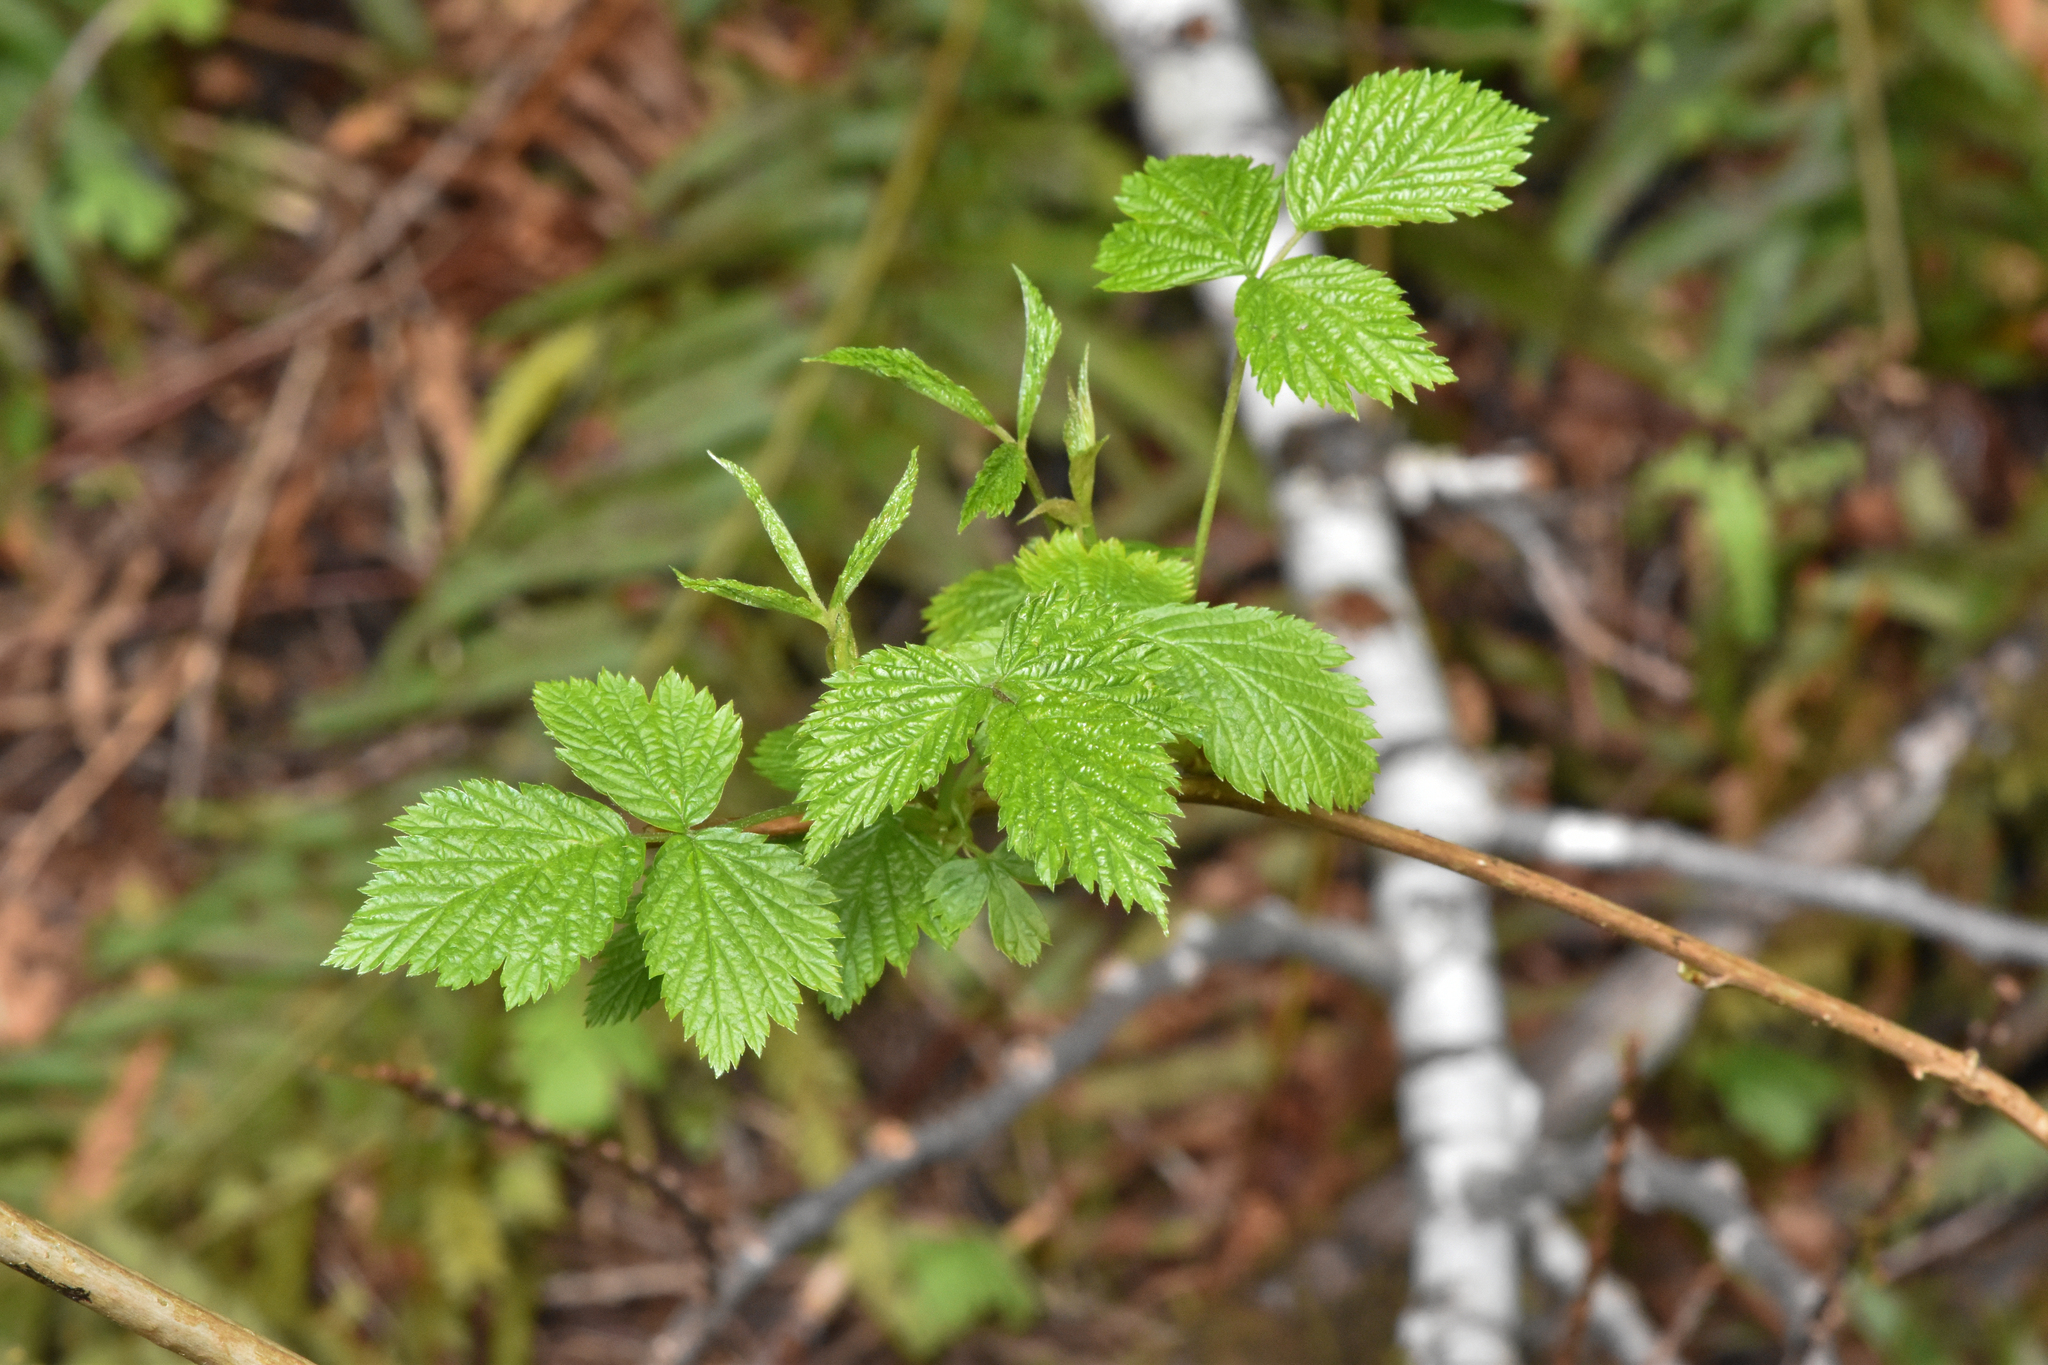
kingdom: Plantae
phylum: Tracheophyta
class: Magnoliopsida
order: Rosales
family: Rosaceae
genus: Rubus
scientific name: Rubus spectabilis
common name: Salmonberry
